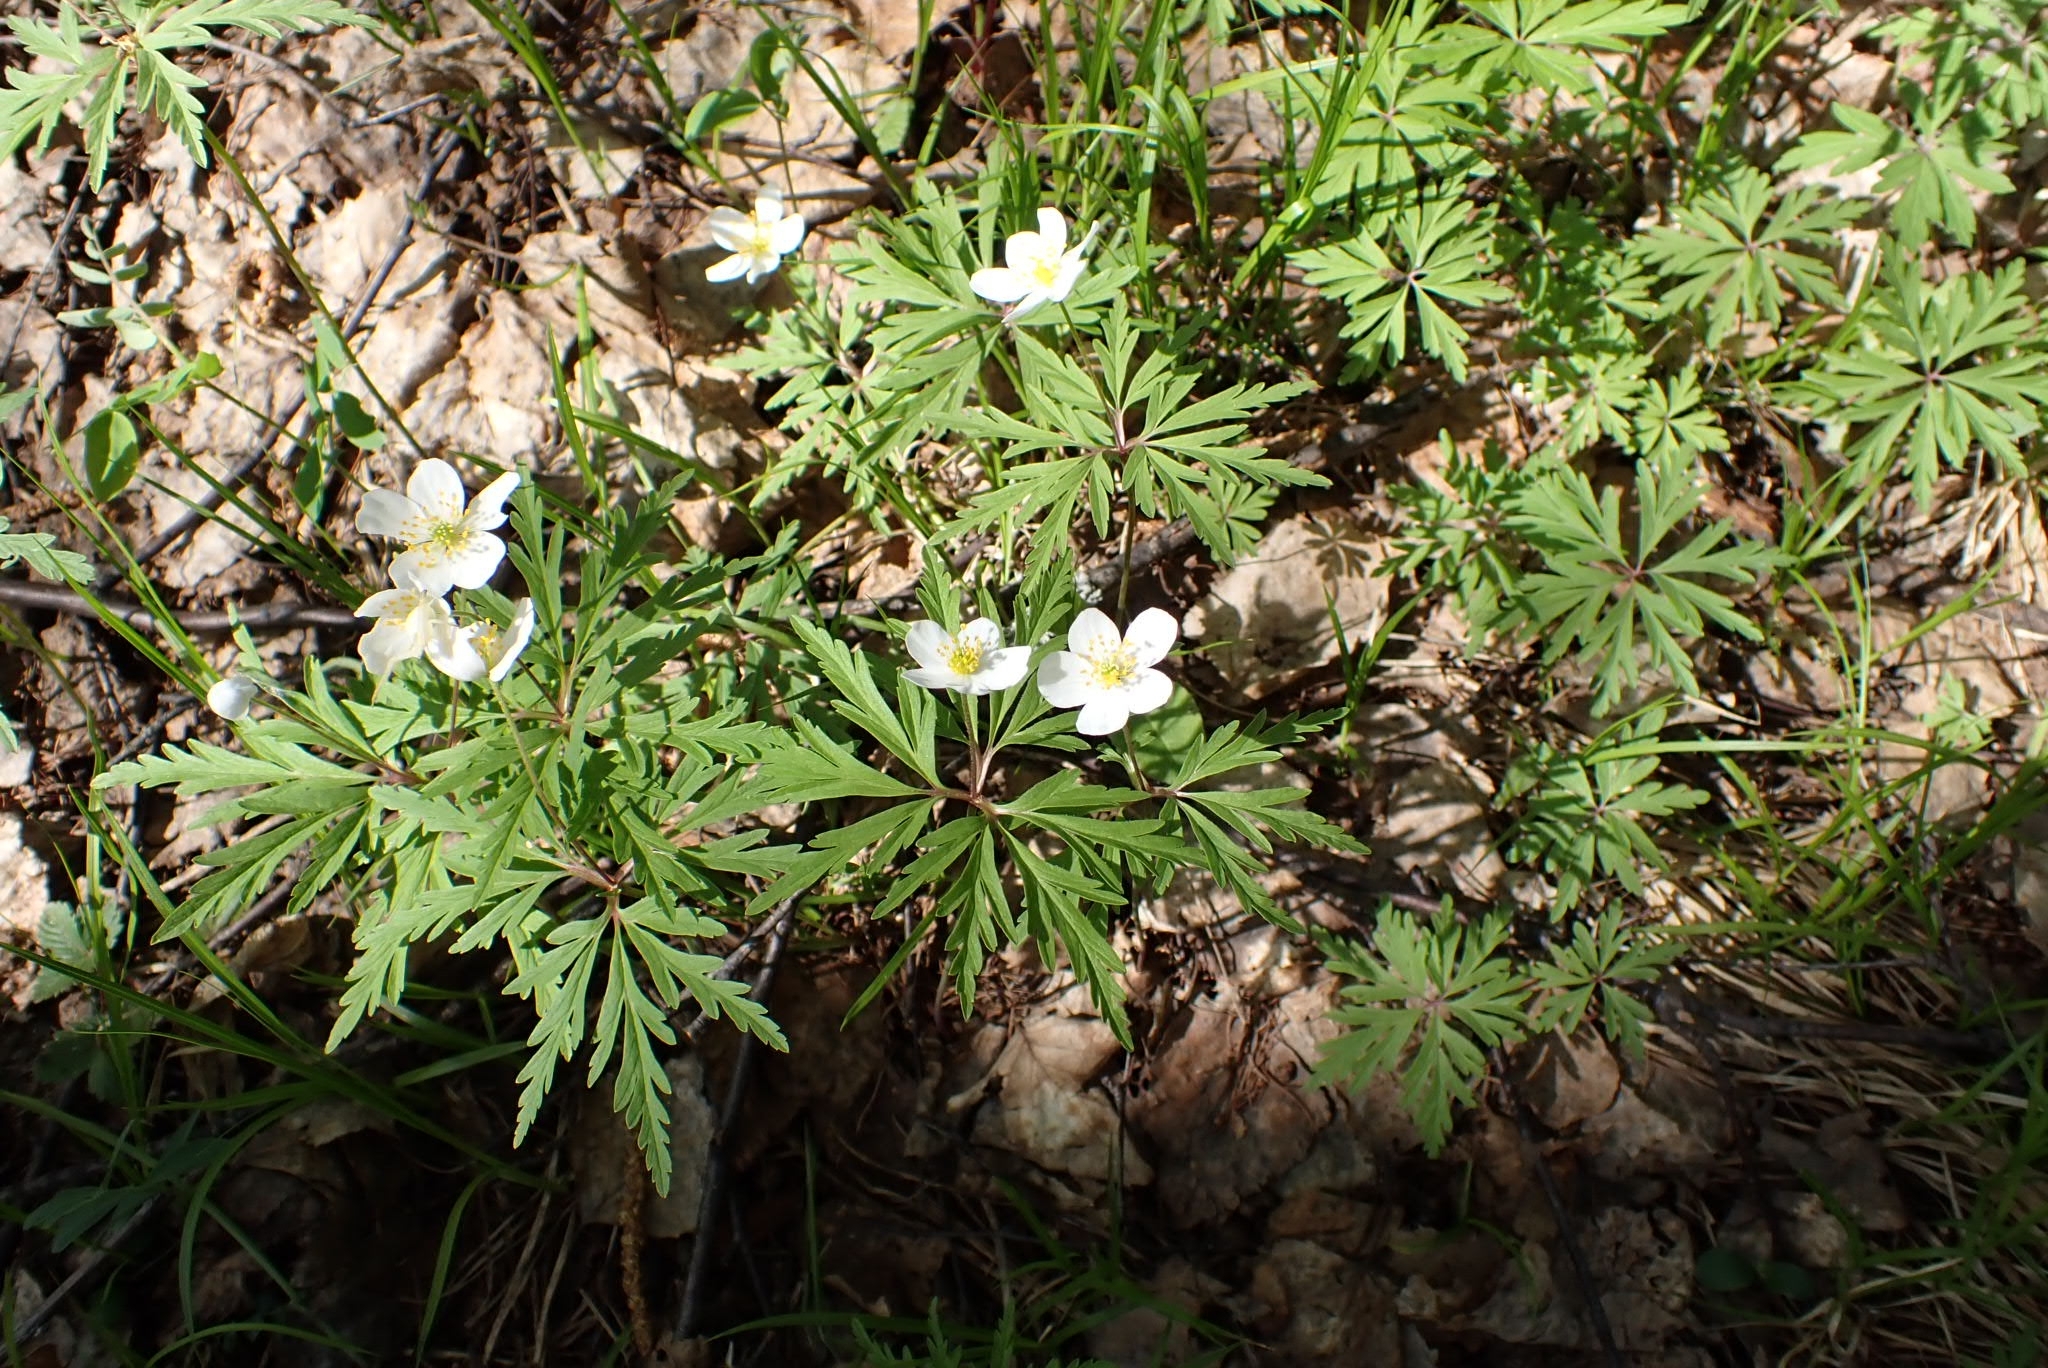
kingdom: Plantae
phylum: Tracheophyta
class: Magnoliopsida
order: Ranunculales
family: Ranunculaceae
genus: Anemone
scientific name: Anemone caerulea
